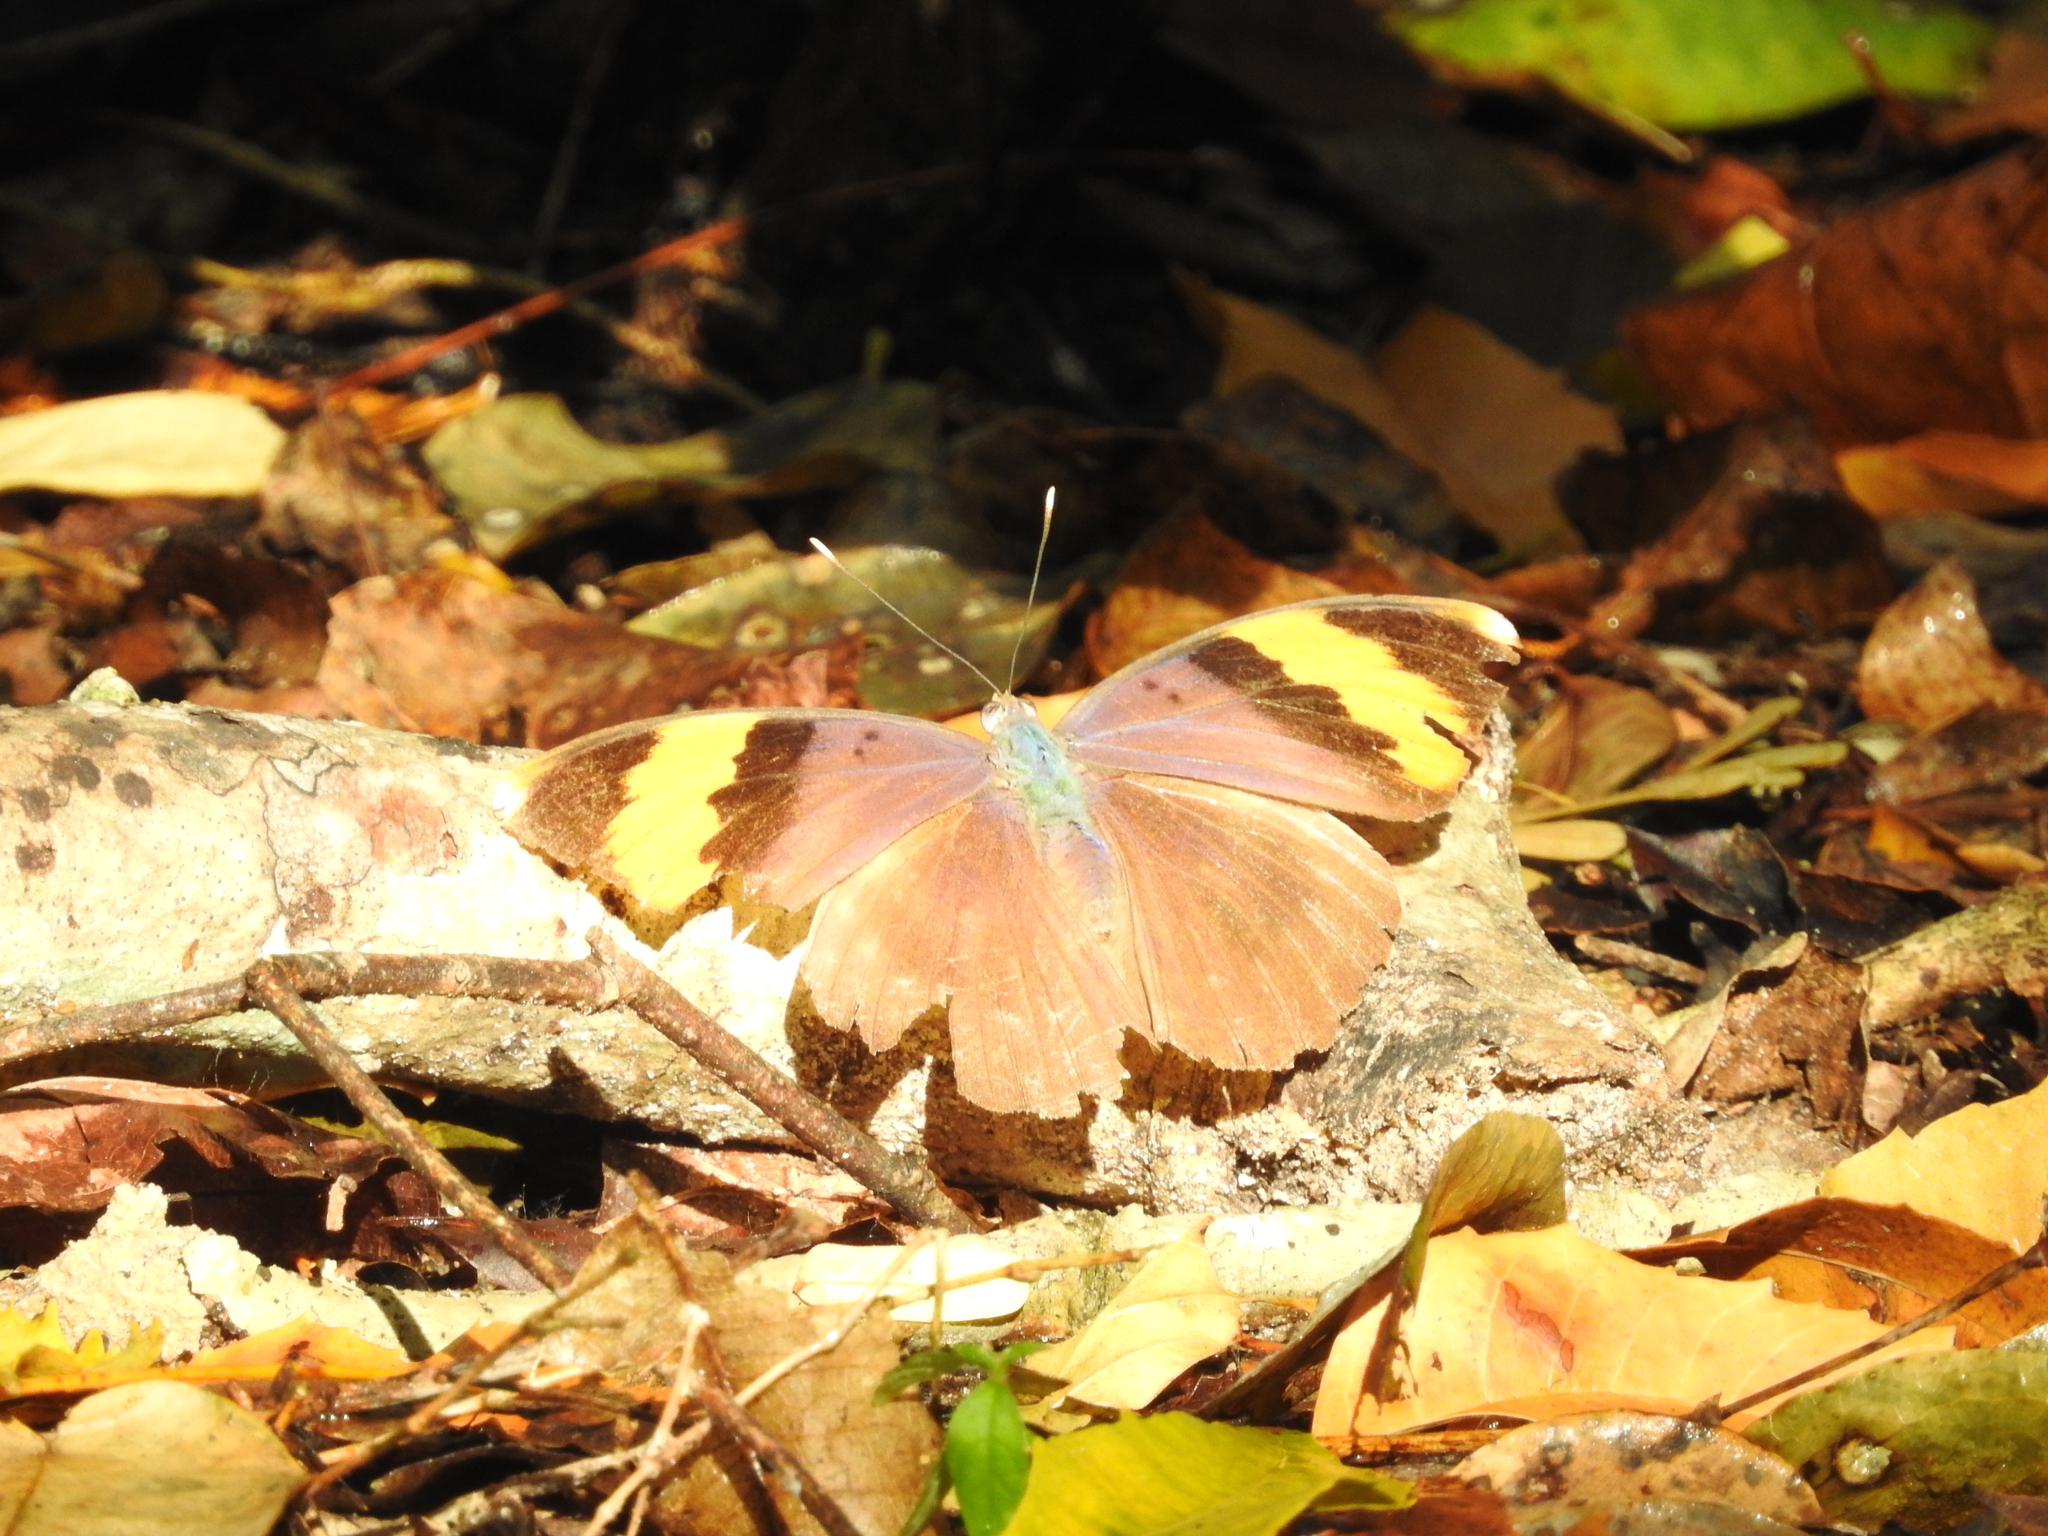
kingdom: Animalia
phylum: Arthropoda
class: Insecta
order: Lepidoptera
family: Nymphalidae
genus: Euphaedra
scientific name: Euphaedra neophron
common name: Gold-banded forester
